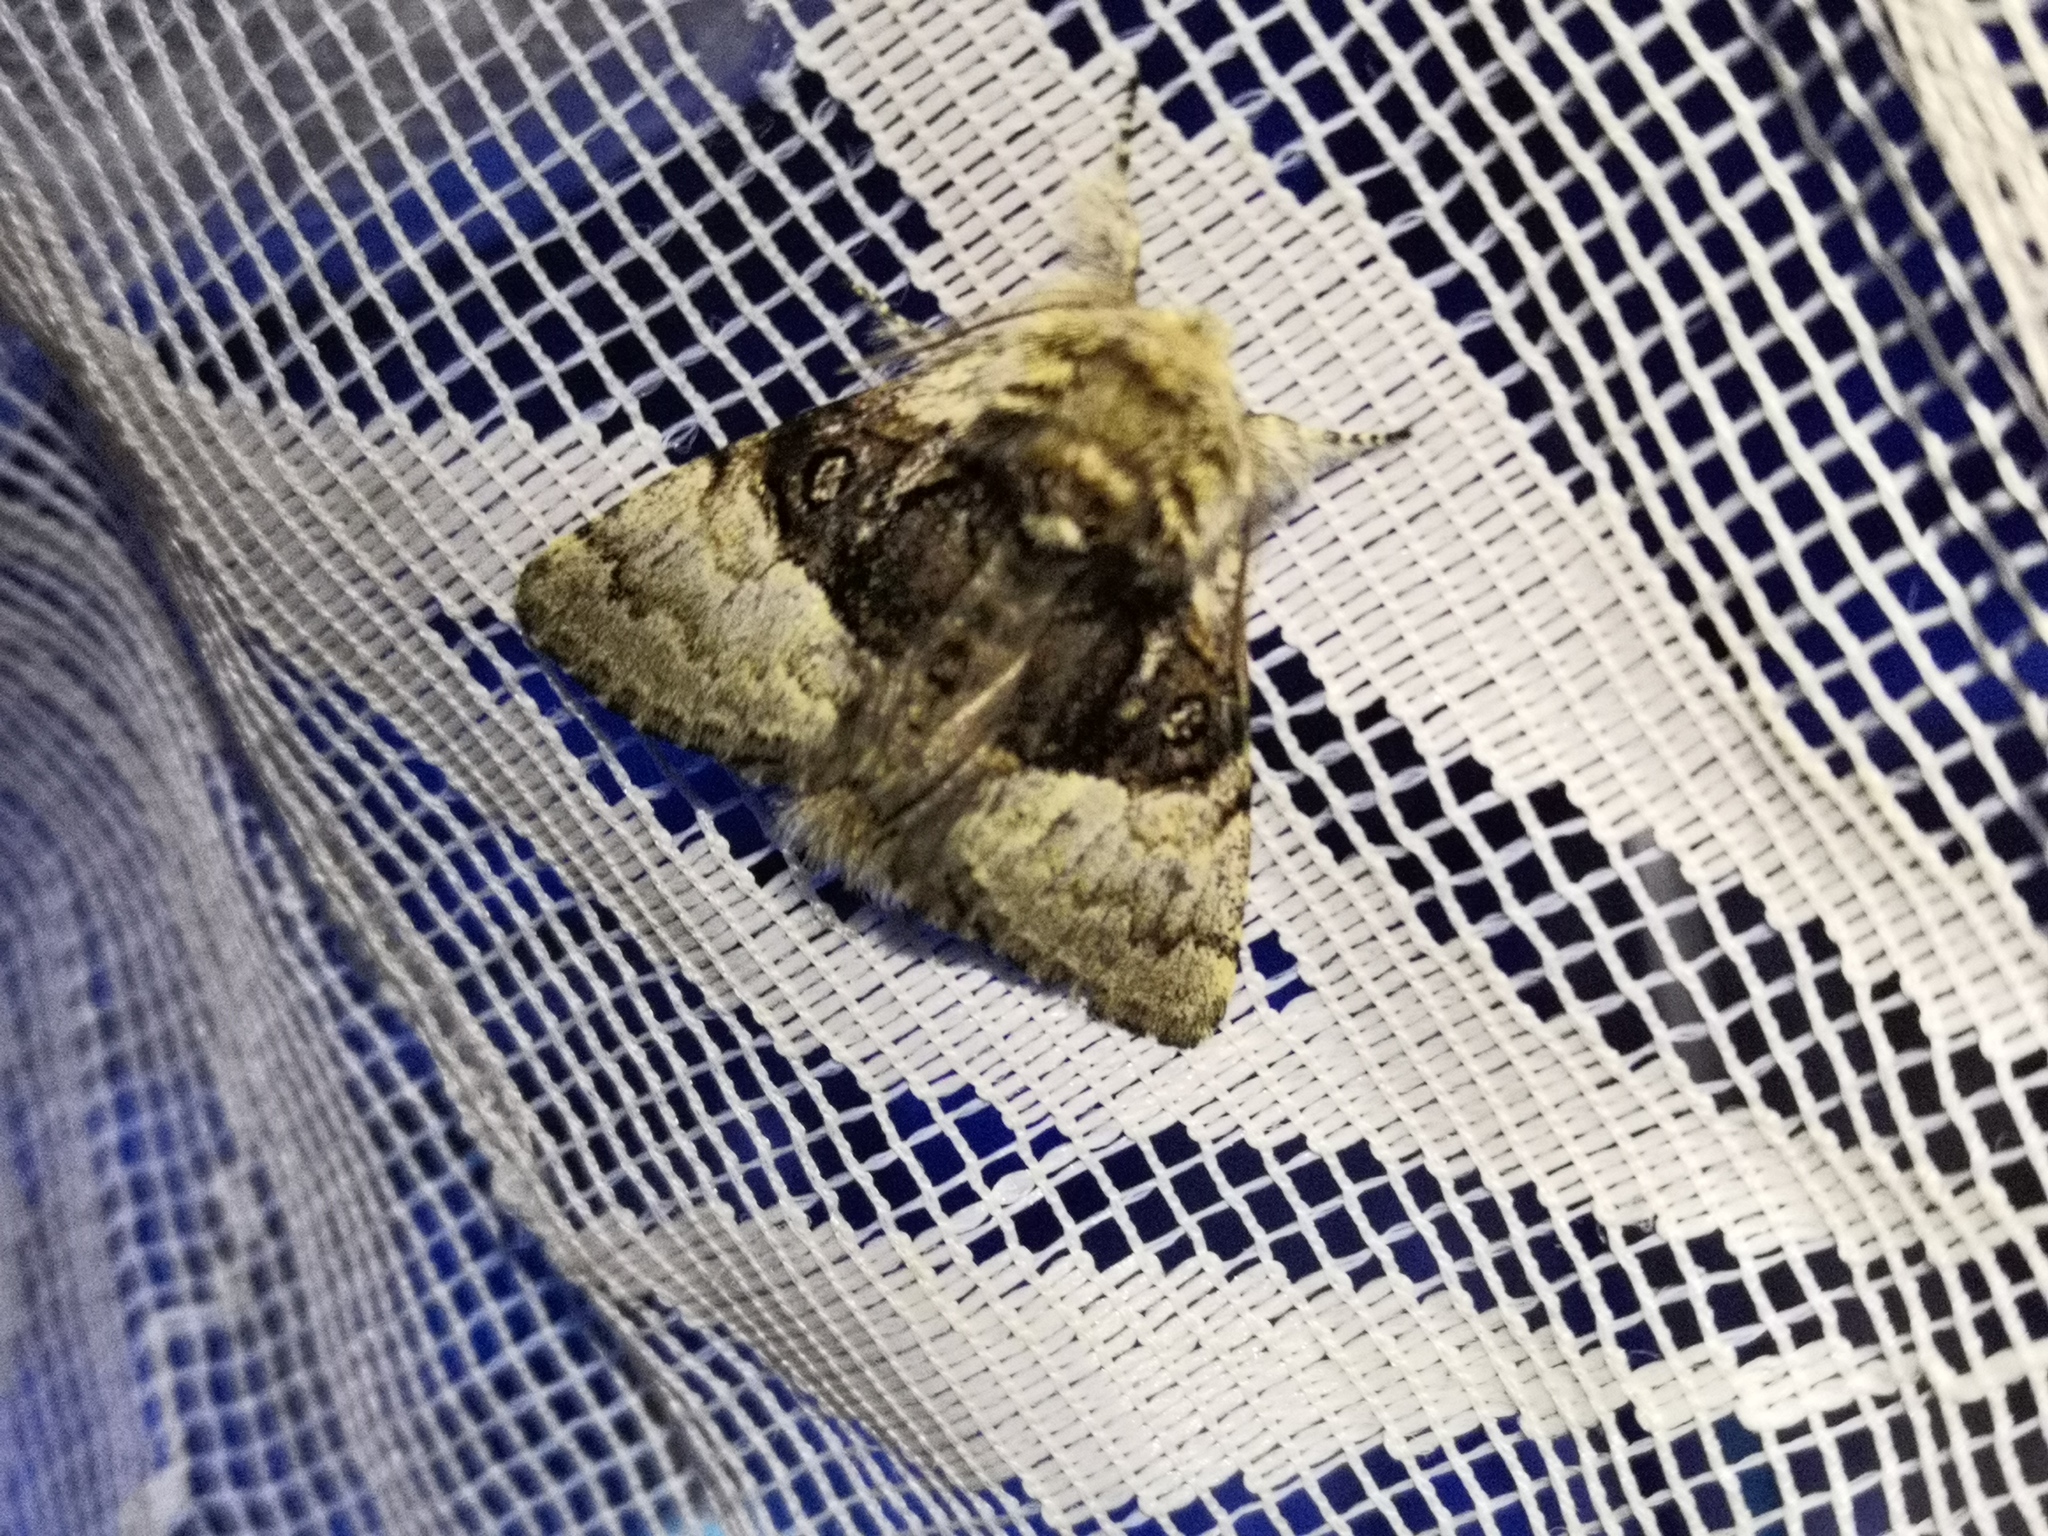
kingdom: Animalia
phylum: Arthropoda
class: Insecta
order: Lepidoptera
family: Noctuidae
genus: Colocasia
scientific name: Colocasia coryli
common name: Nut-tree tussock
